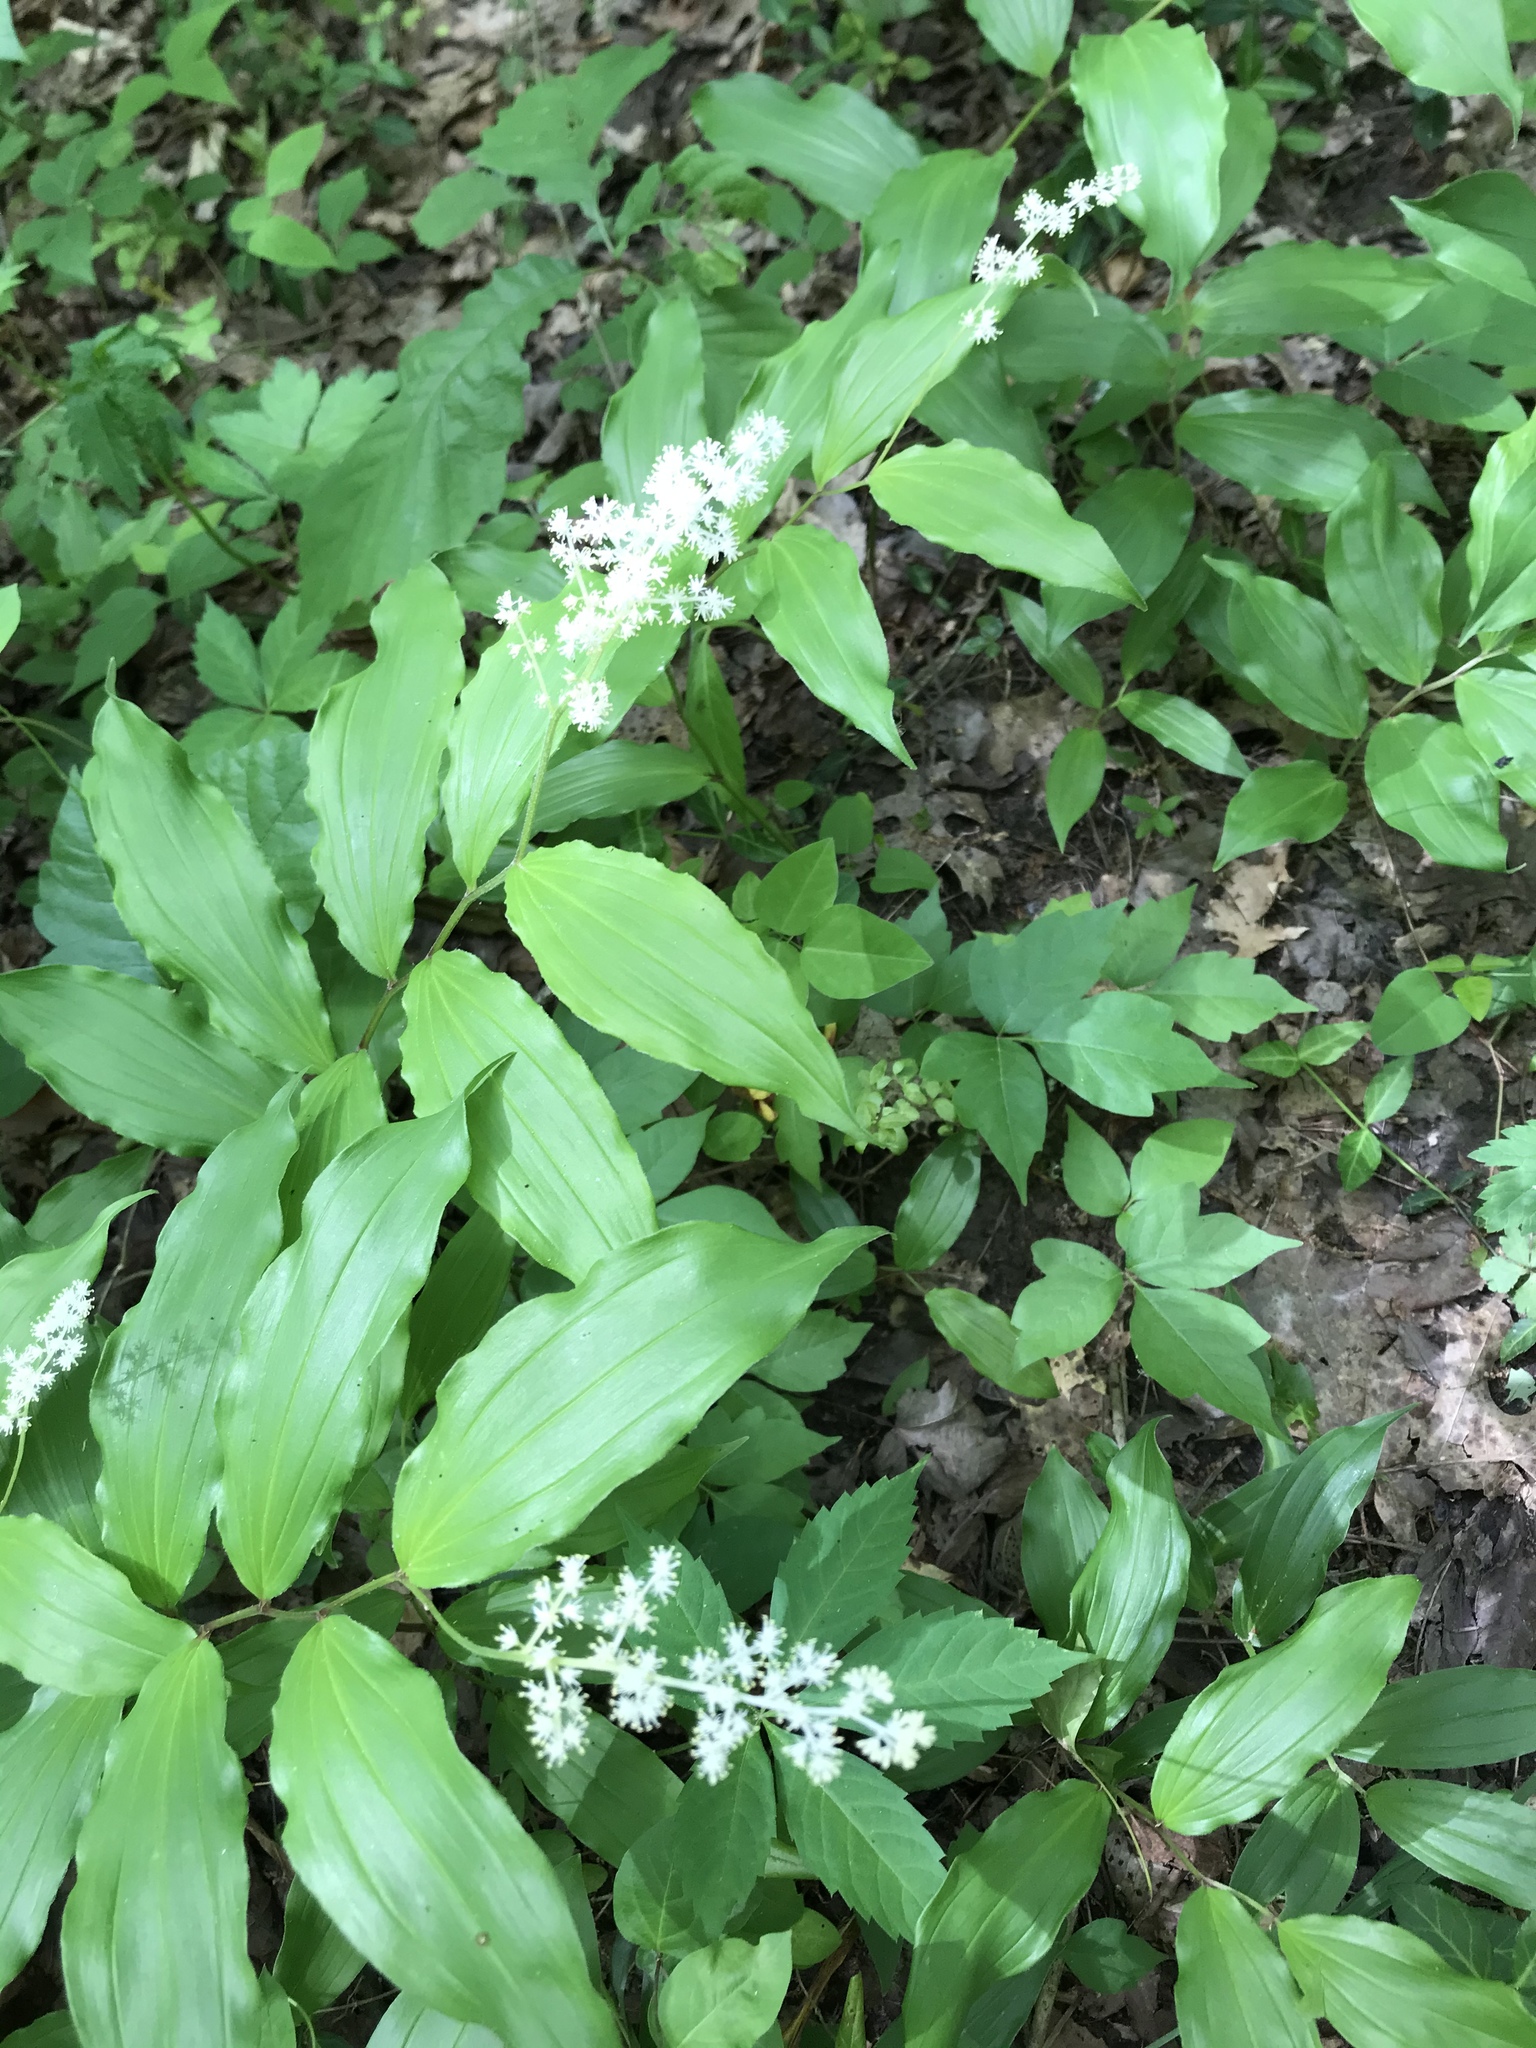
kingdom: Plantae
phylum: Tracheophyta
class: Liliopsida
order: Asparagales
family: Asparagaceae
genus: Maianthemum
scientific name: Maianthemum racemosum
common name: False spikenard
